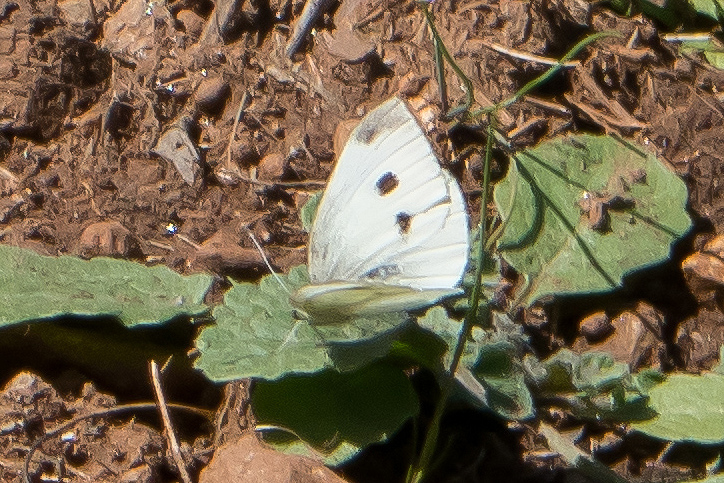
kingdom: Animalia
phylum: Arthropoda
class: Insecta
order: Lepidoptera
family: Pieridae
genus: Pieris
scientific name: Pieris rapae
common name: Small white
